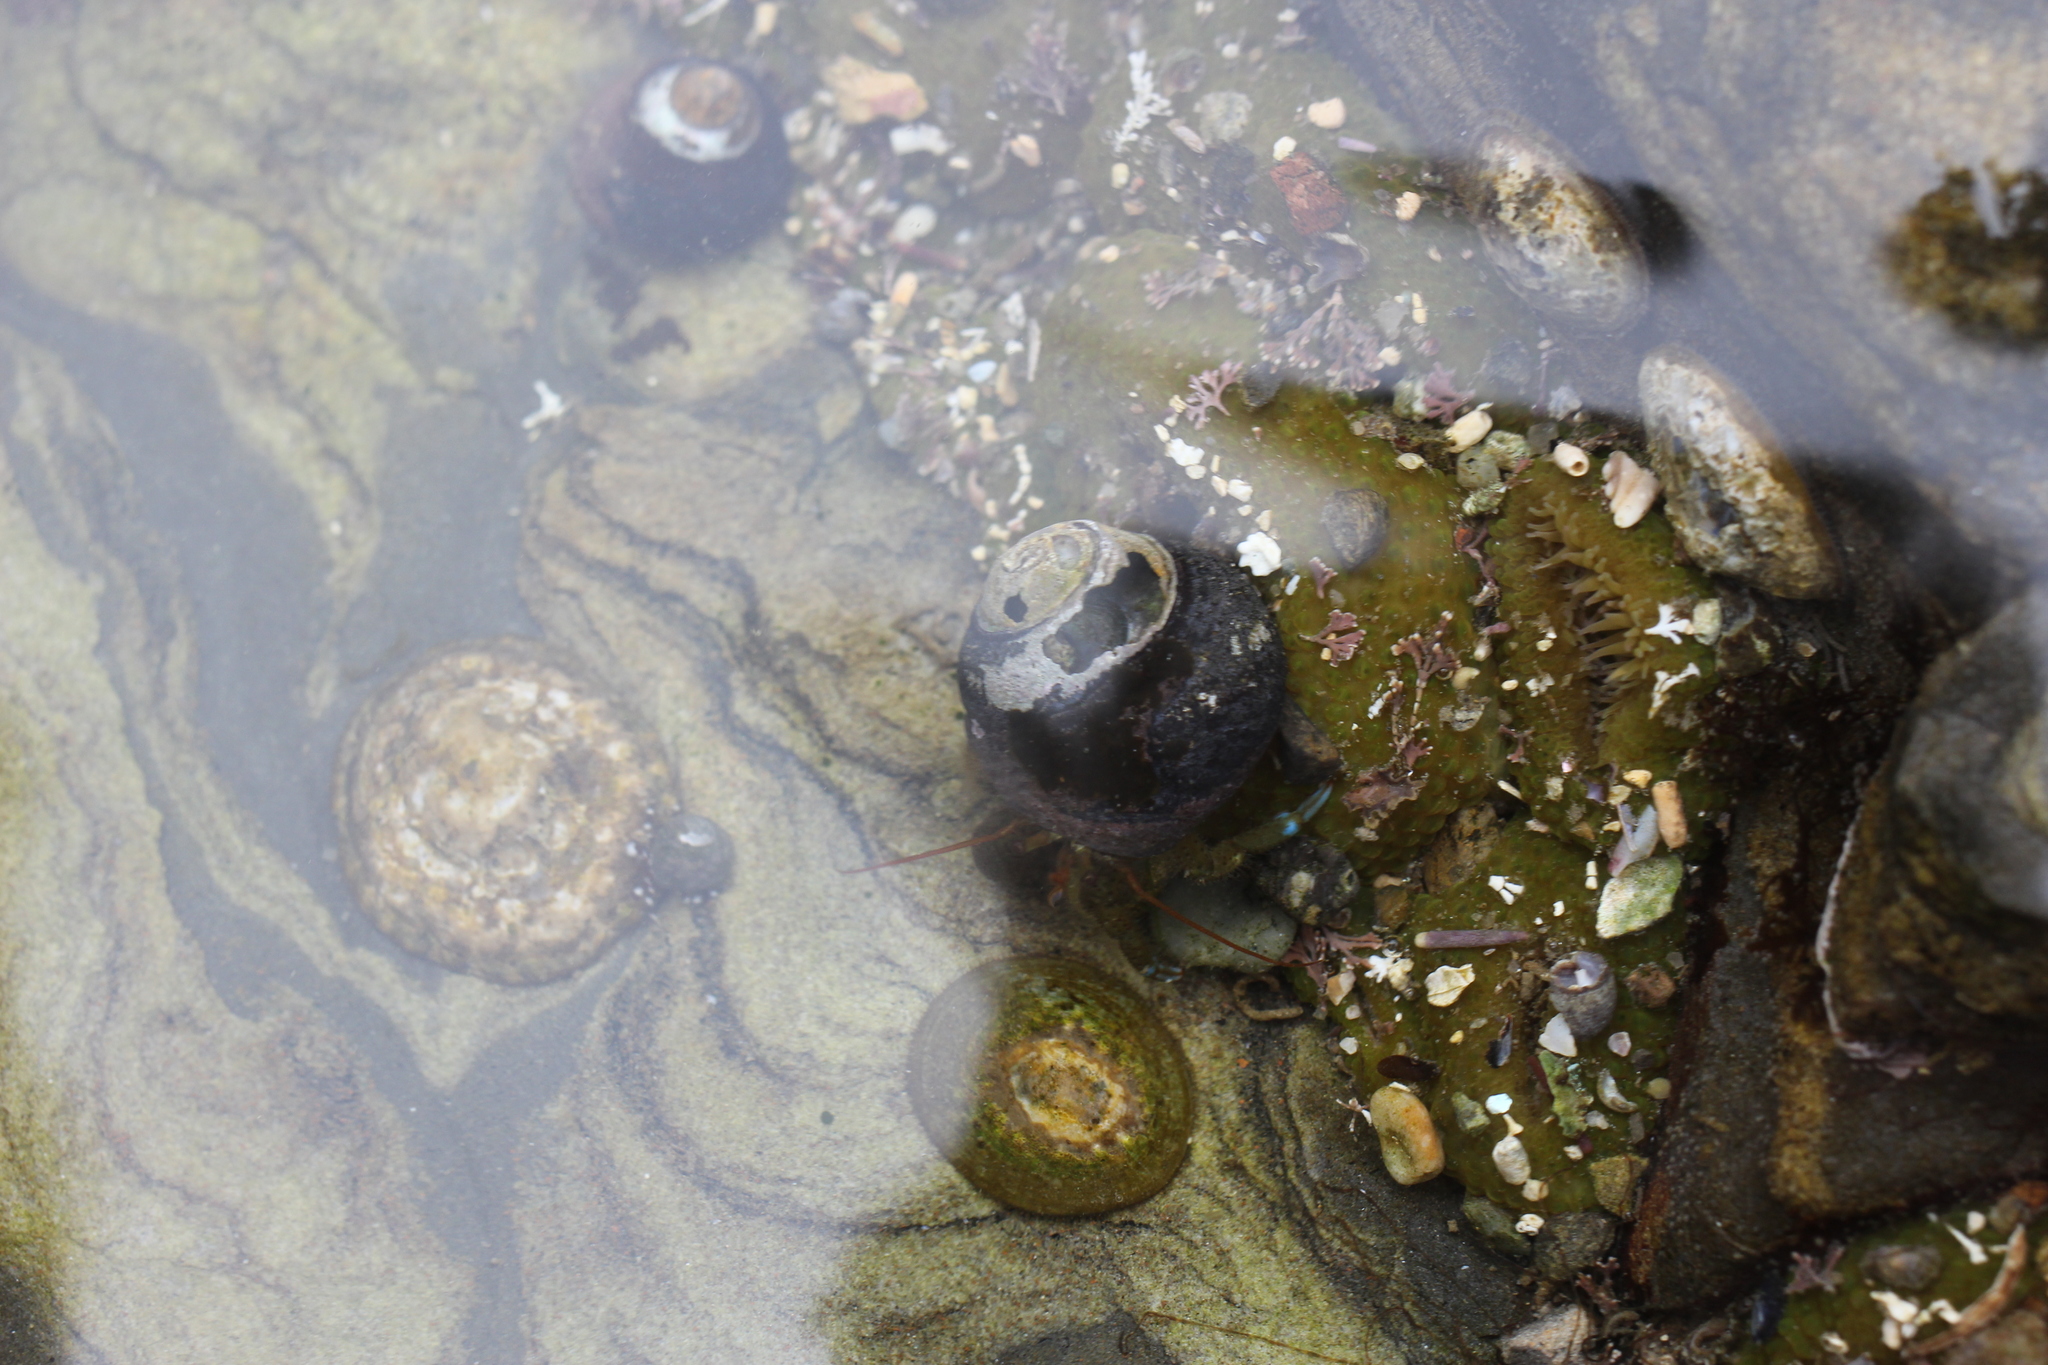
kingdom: Animalia
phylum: Arthropoda
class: Malacostraca
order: Decapoda
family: Paguridae
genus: Pagurus
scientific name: Pagurus samuelis
